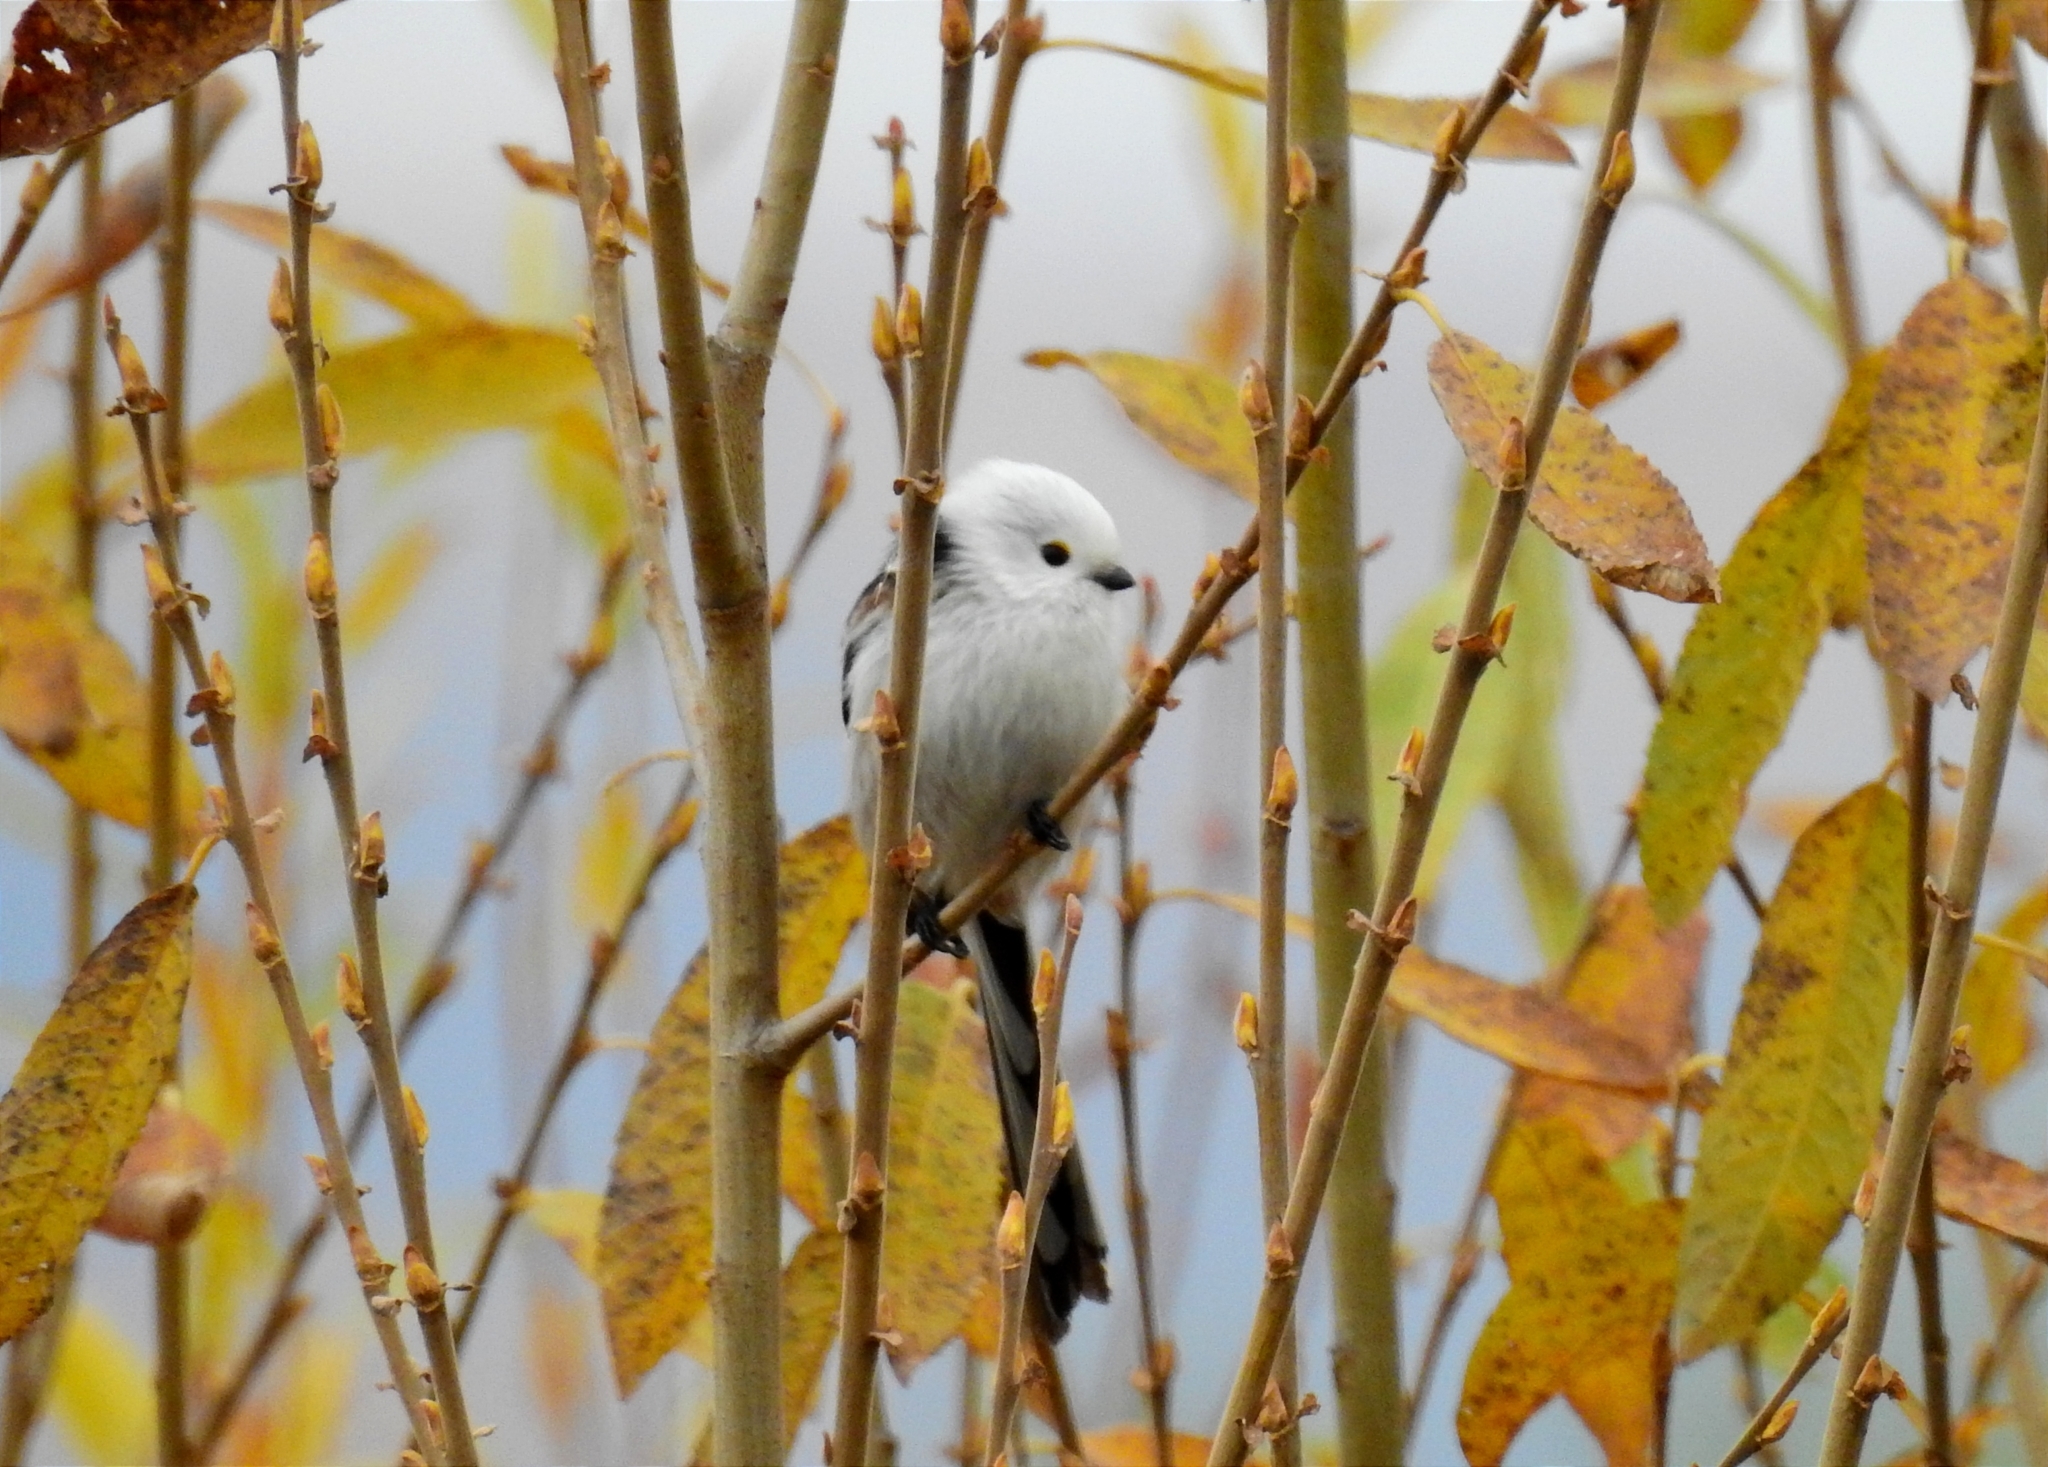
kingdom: Animalia
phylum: Chordata
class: Aves
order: Passeriformes
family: Aegithalidae
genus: Aegithalos
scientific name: Aegithalos caudatus
